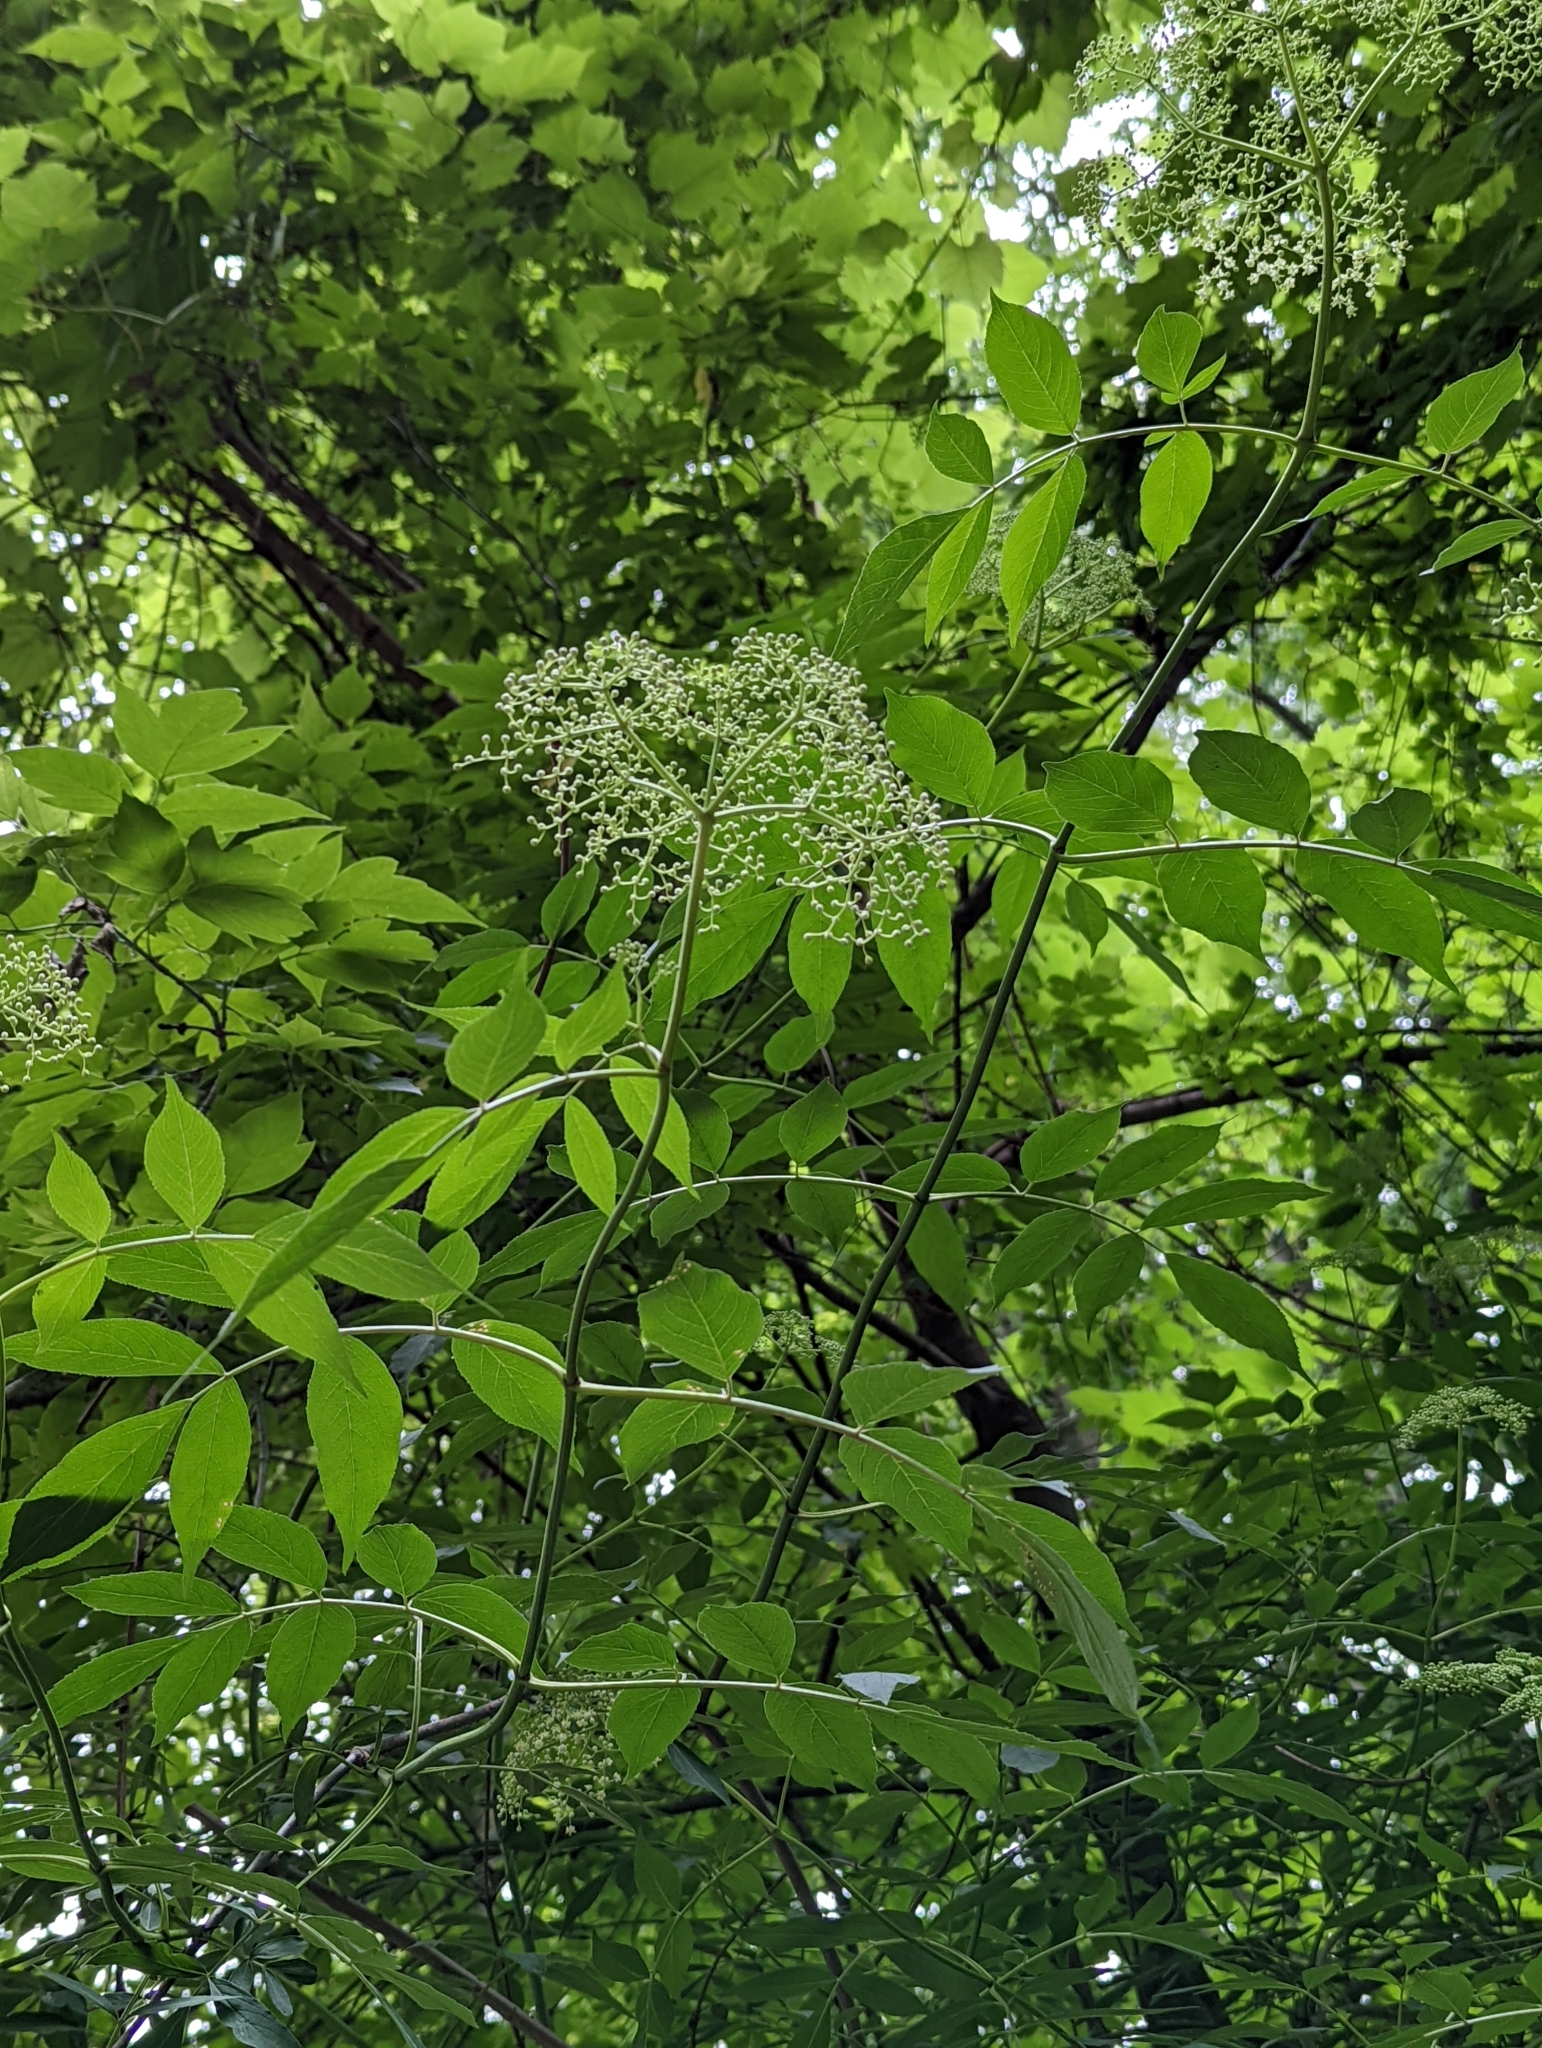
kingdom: Plantae
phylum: Tracheophyta
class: Magnoliopsida
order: Dipsacales
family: Viburnaceae
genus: Sambucus
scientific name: Sambucus canadensis
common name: American elder
